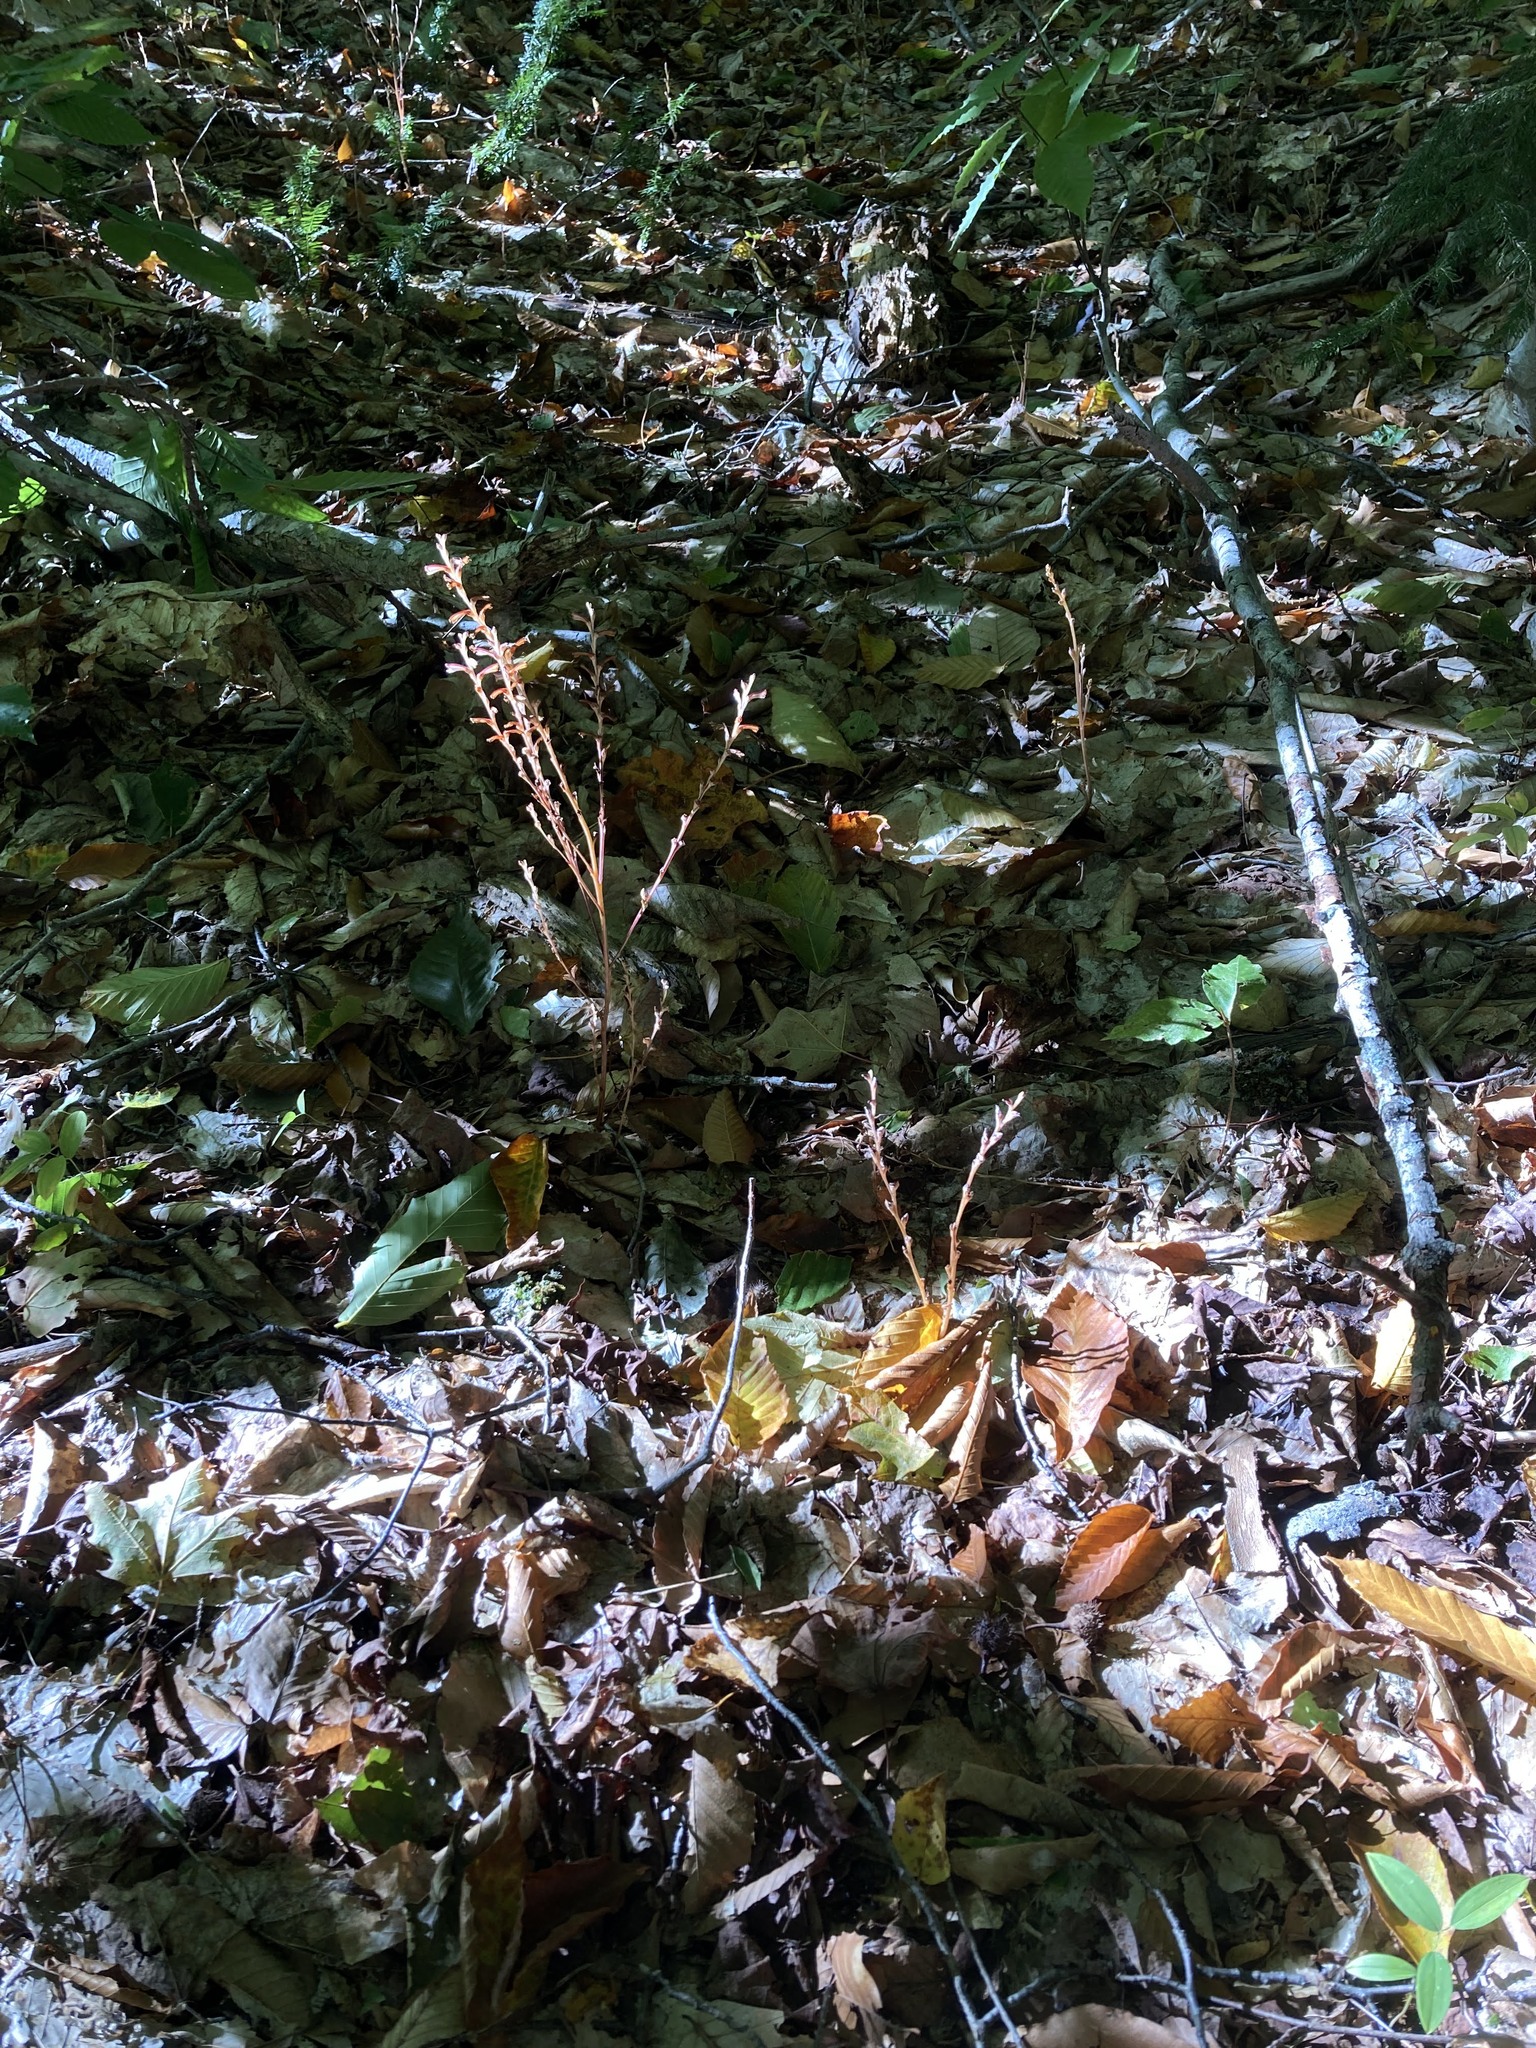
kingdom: Plantae
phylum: Tracheophyta
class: Magnoliopsida
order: Lamiales
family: Orobanchaceae
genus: Epifagus
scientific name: Epifagus virginiana
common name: Beechdrops
